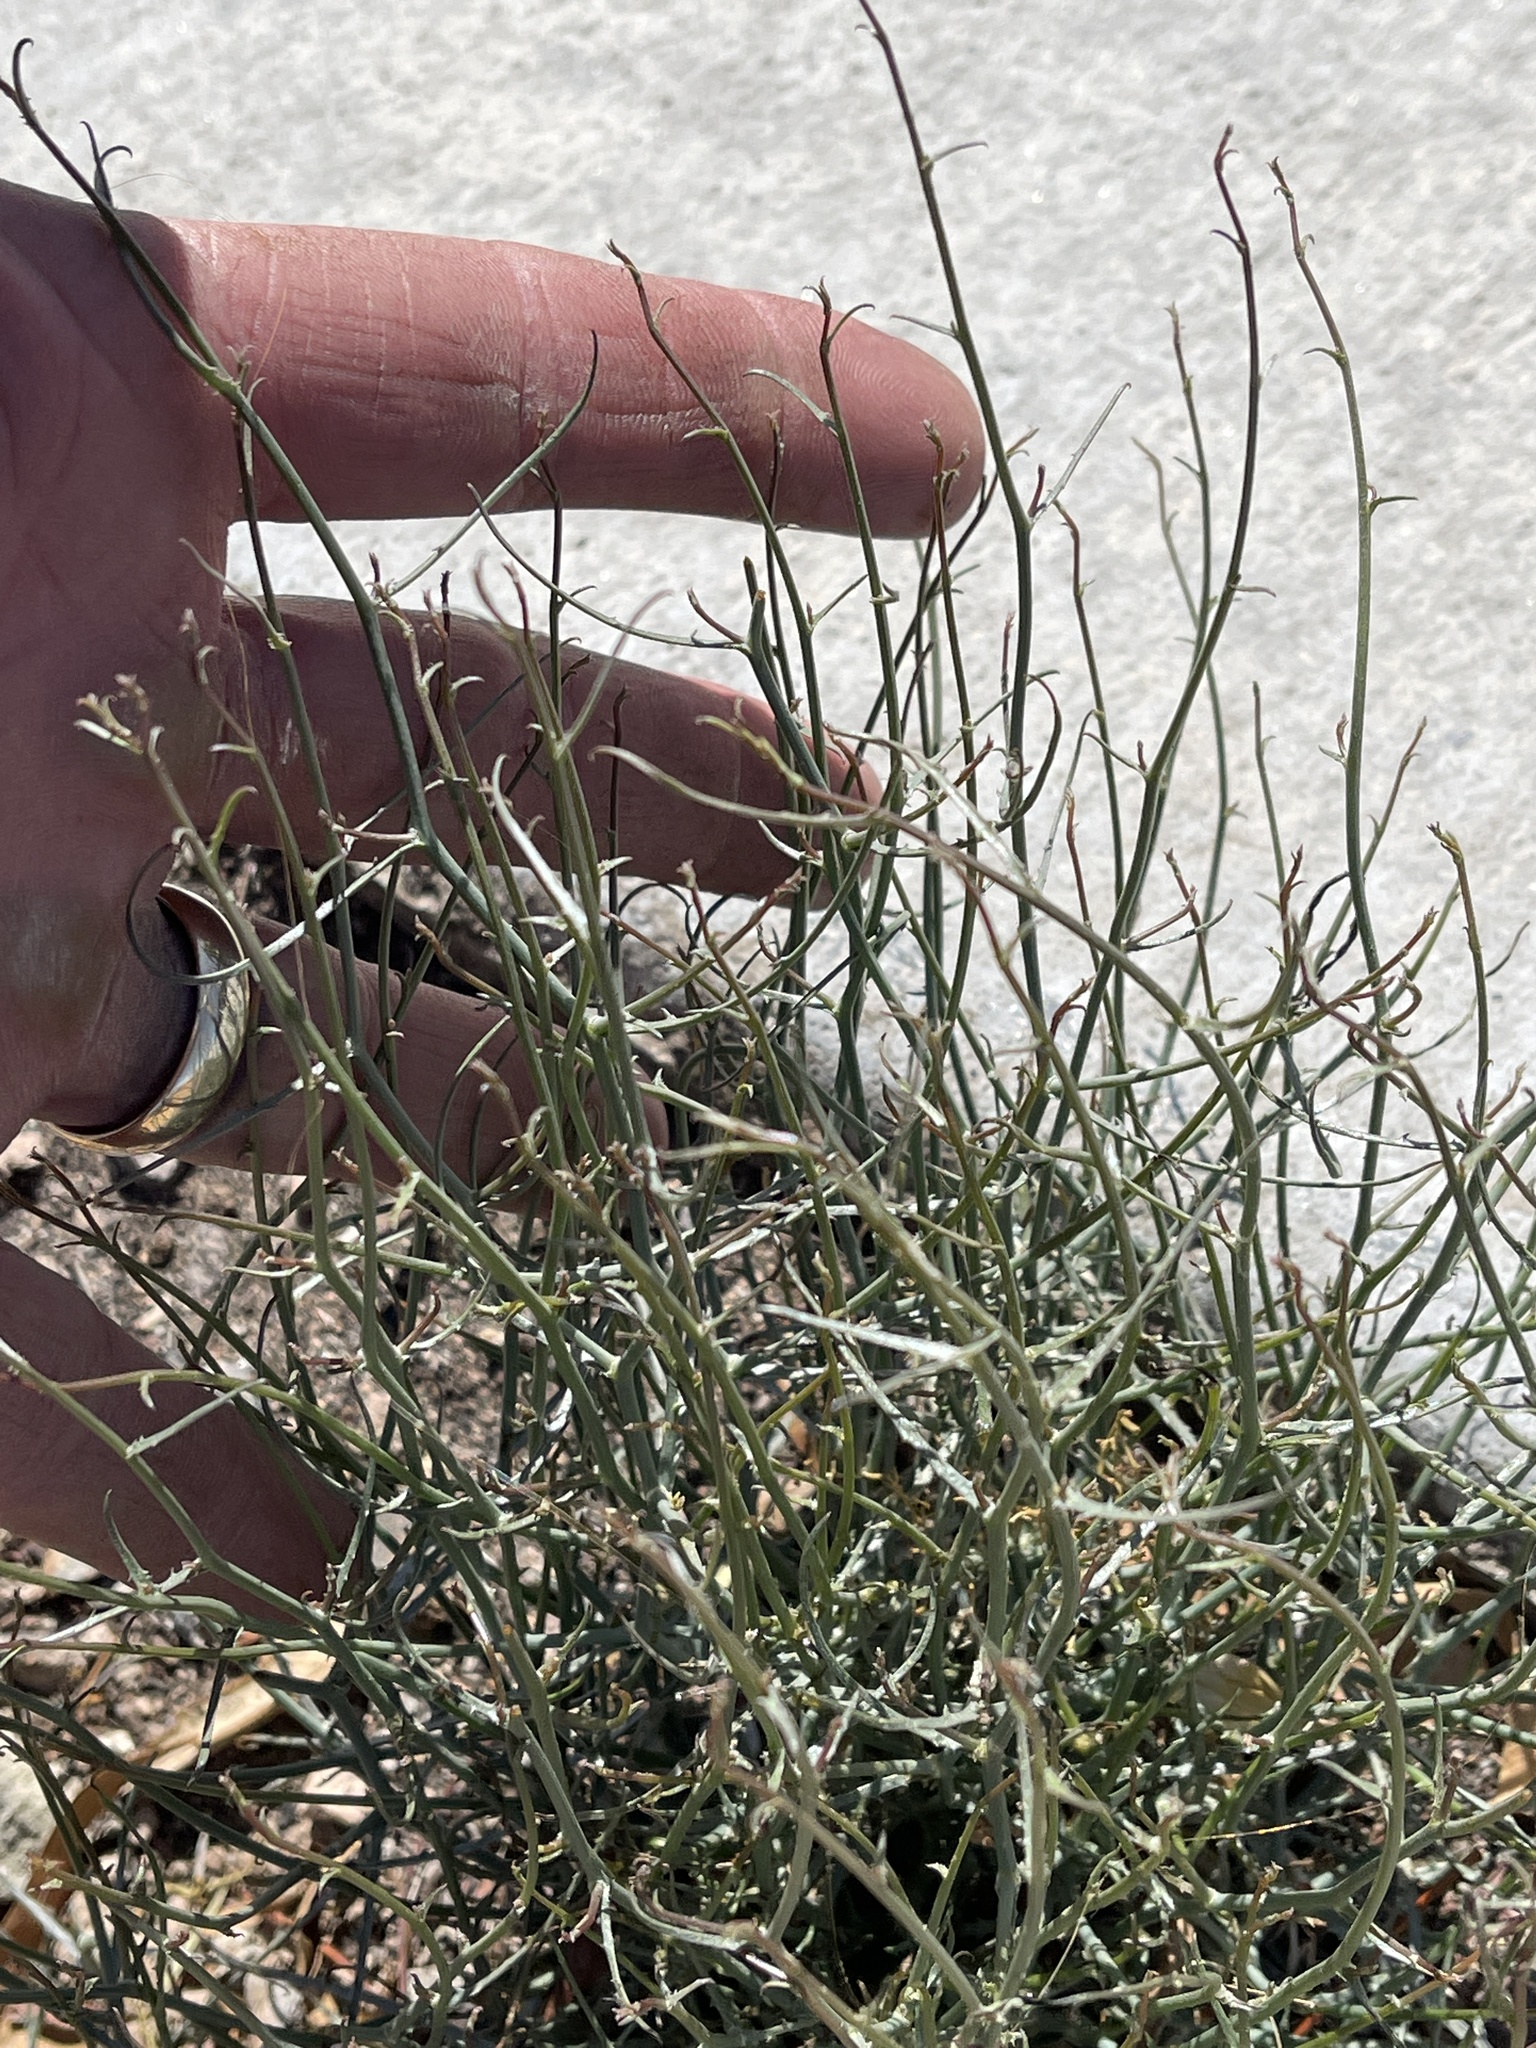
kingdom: Plantae
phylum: Tracheophyta
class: Magnoliopsida
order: Asterales
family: Asteraceae
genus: Stephanomeria
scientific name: Stephanomeria pauciflora
